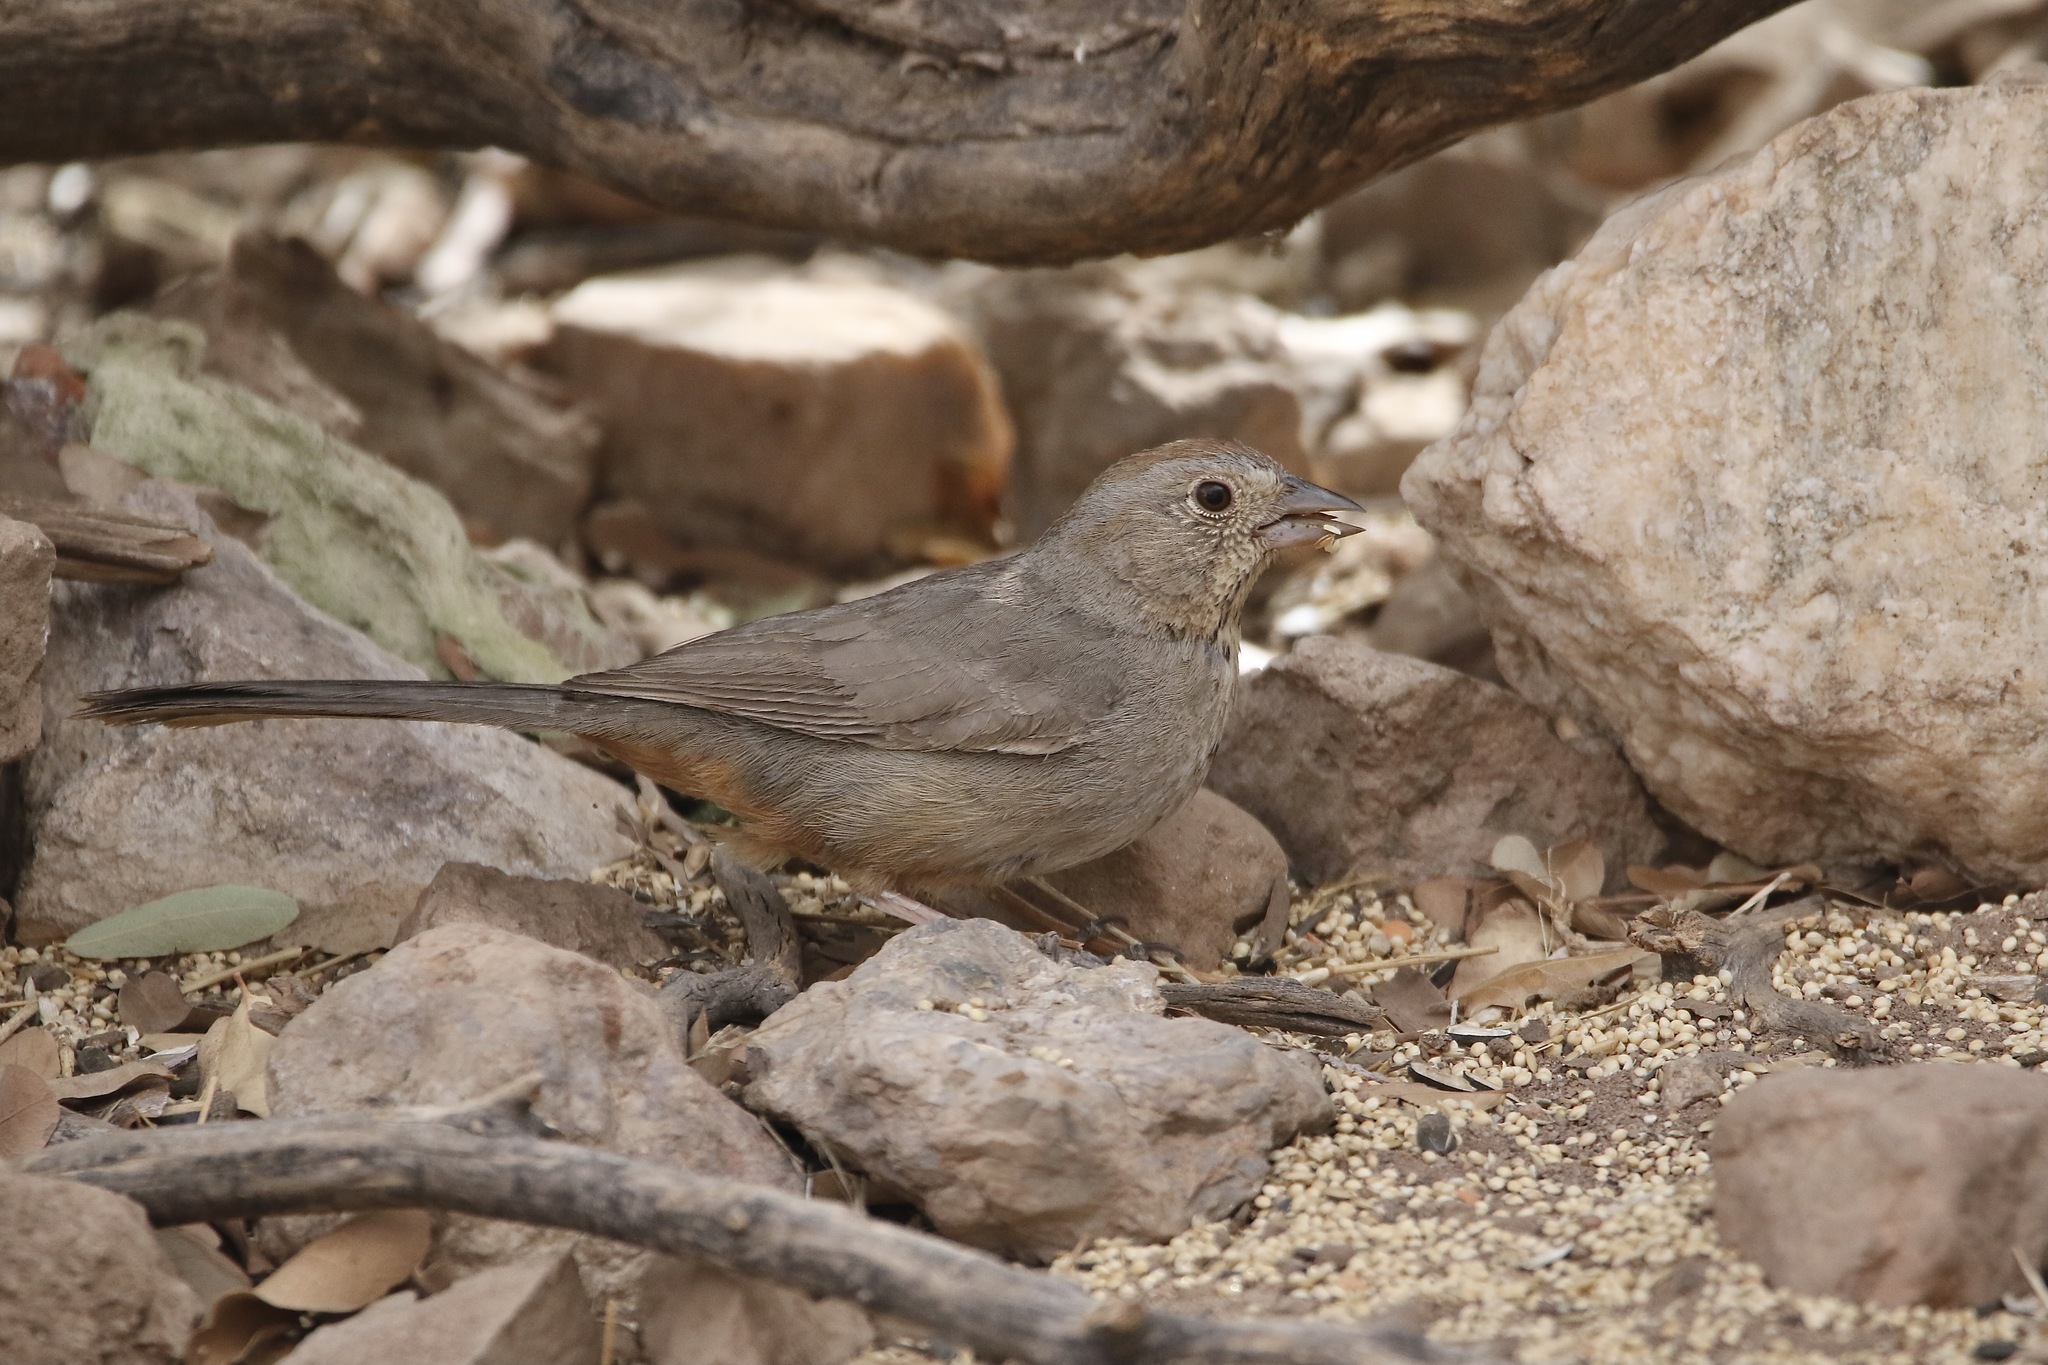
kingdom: Animalia
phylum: Chordata
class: Aves
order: Passeriformes
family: Passerellidae
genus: Melozone
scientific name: Melozone fusca
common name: Canyon towhee
